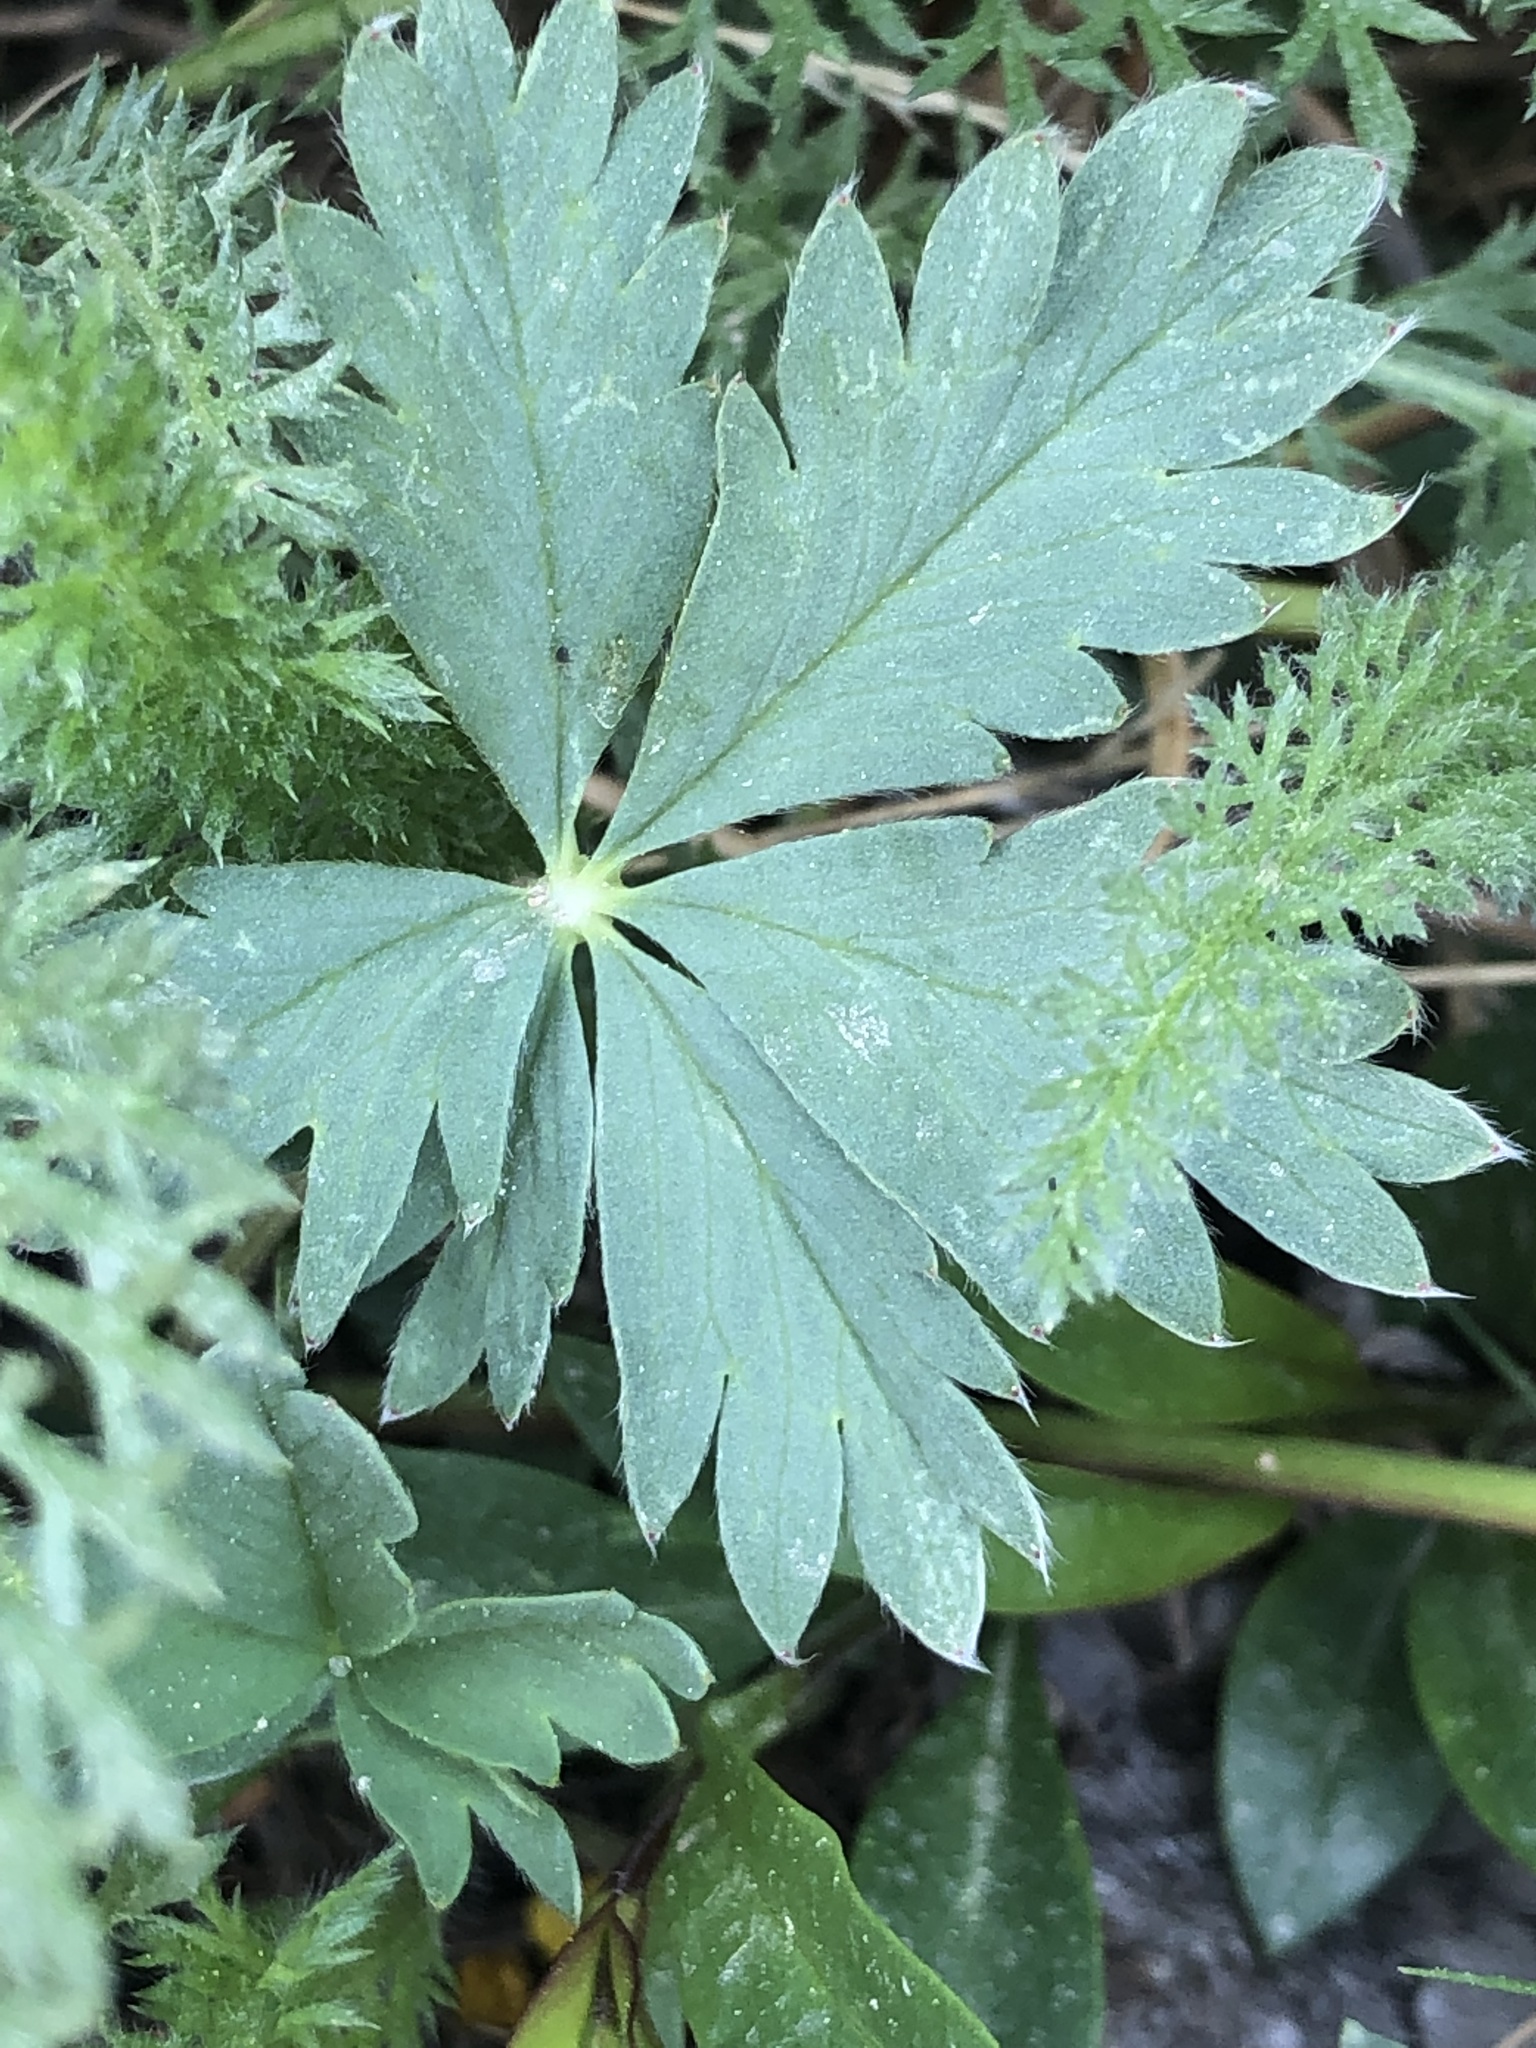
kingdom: Plantae
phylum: Tracheophyta
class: Magnoliopsida
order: Rosales
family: Rosaceae
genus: Potentilla
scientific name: Potentilla glaucophylla
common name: Blue-leaved cinquefoil
